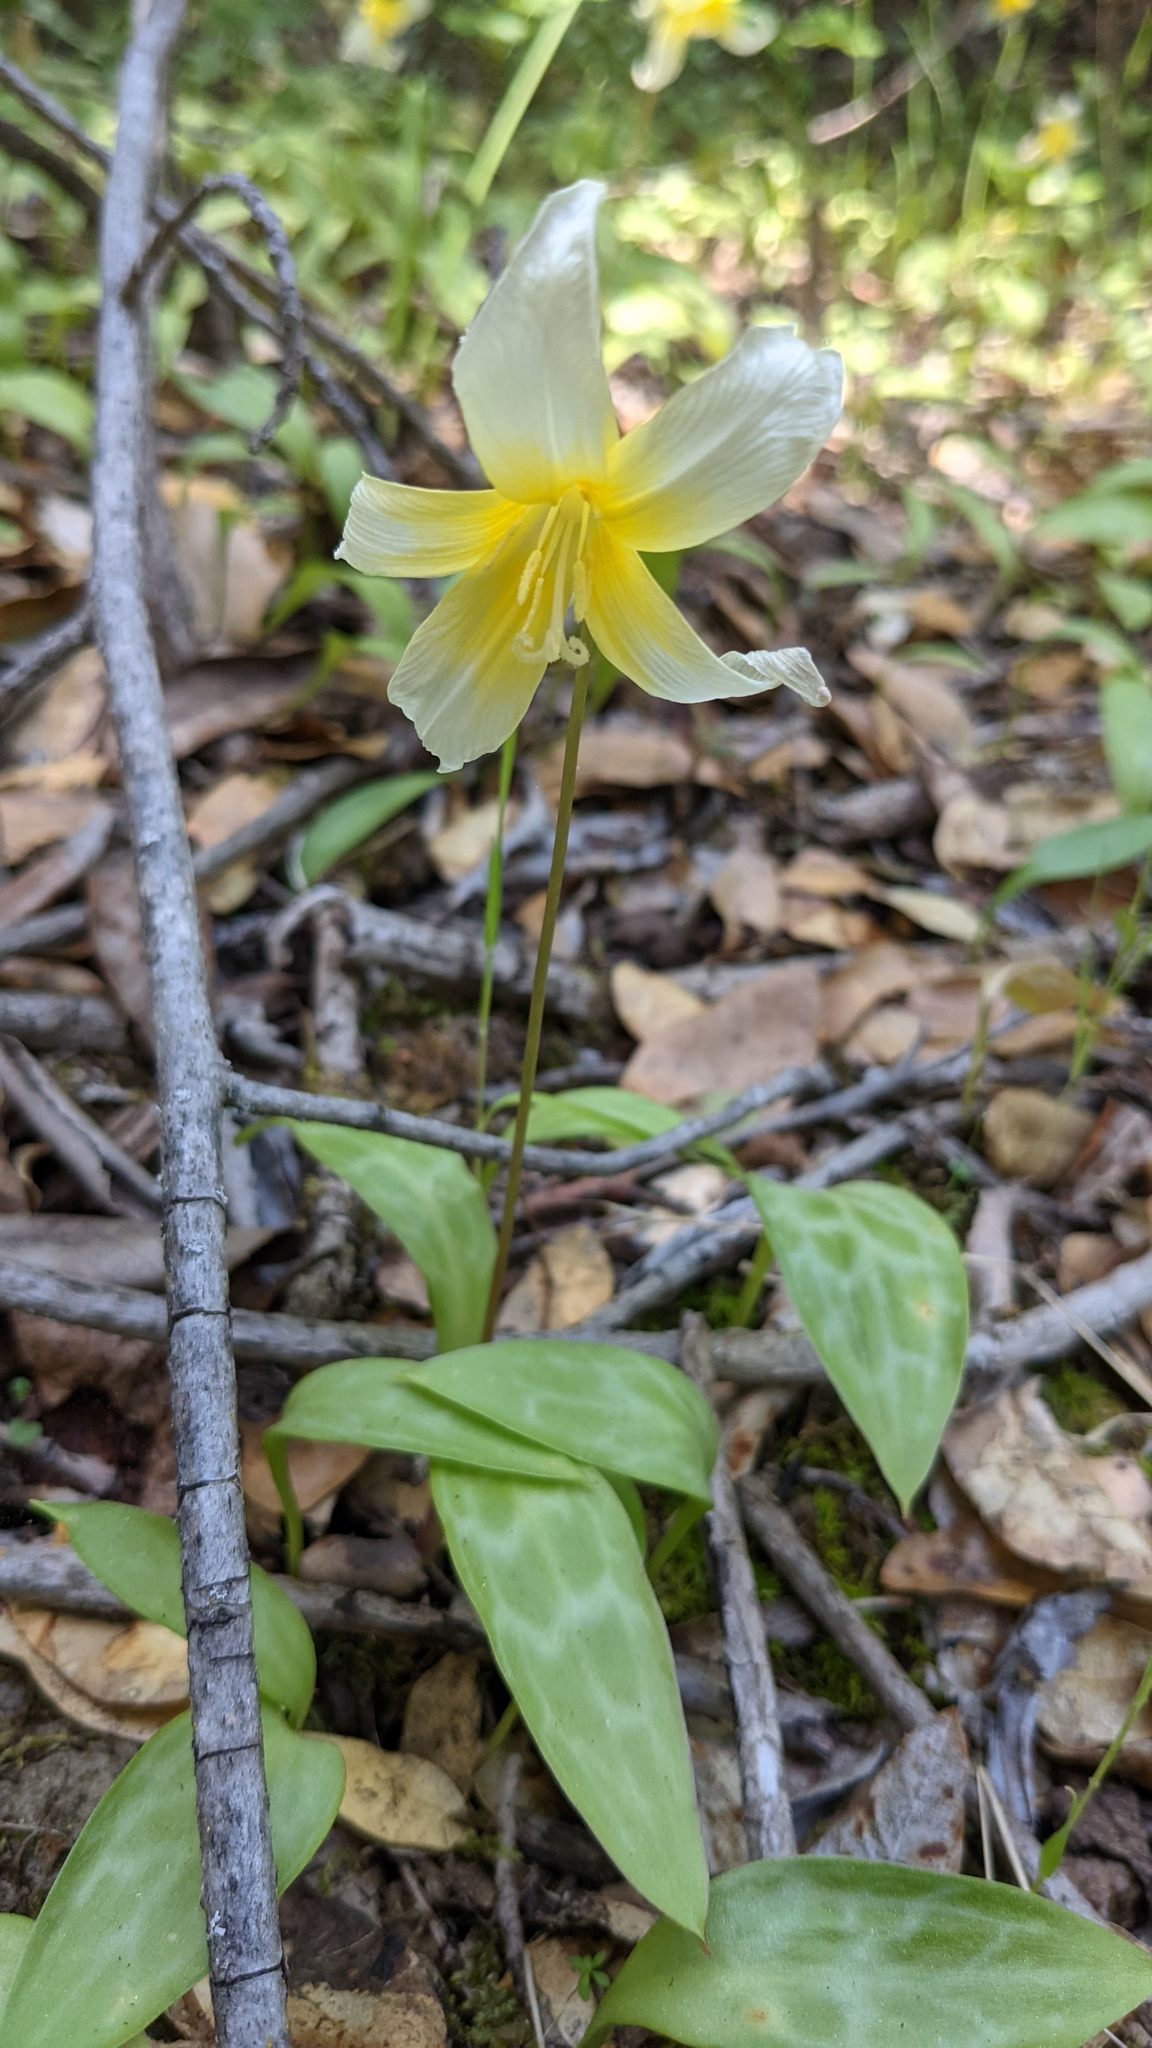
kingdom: Plantae
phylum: Tracheophyta
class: Liliopsida
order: Liliales
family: Liliaceae
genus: Erythronium
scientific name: Erythronium multiscapideum
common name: Sierra foothills fawn-lily
